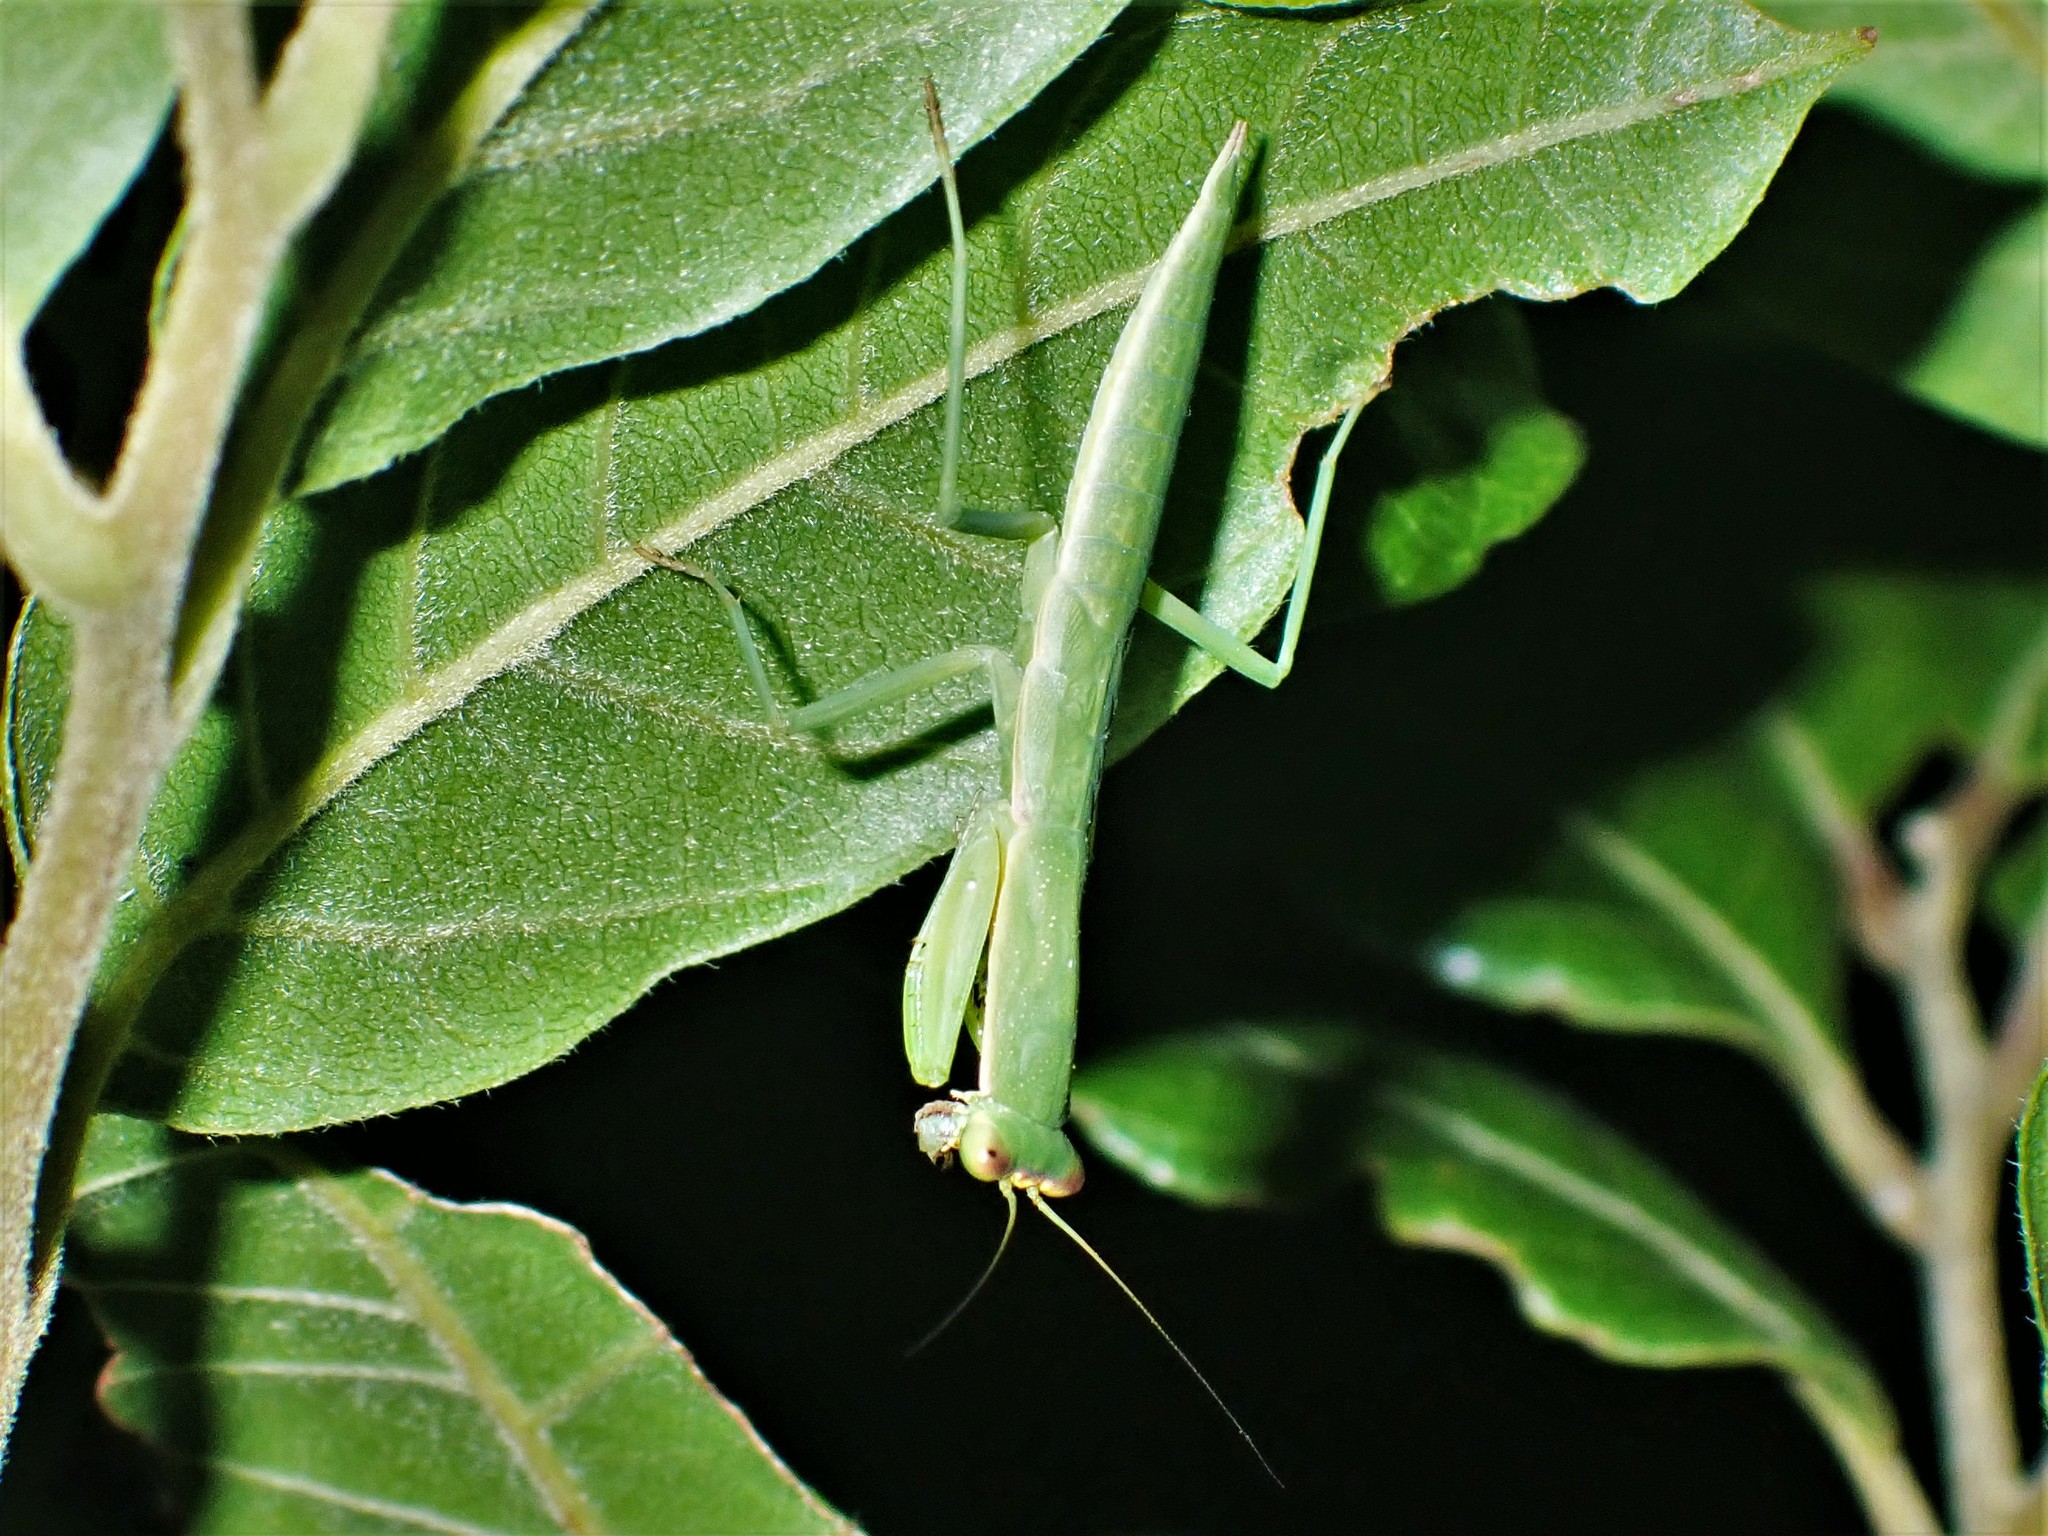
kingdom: Animalia
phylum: Arthropoda
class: Insecta
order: Mantodea
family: Mantidae
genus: Orthodera
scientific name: Orthodera novaezealandiae
